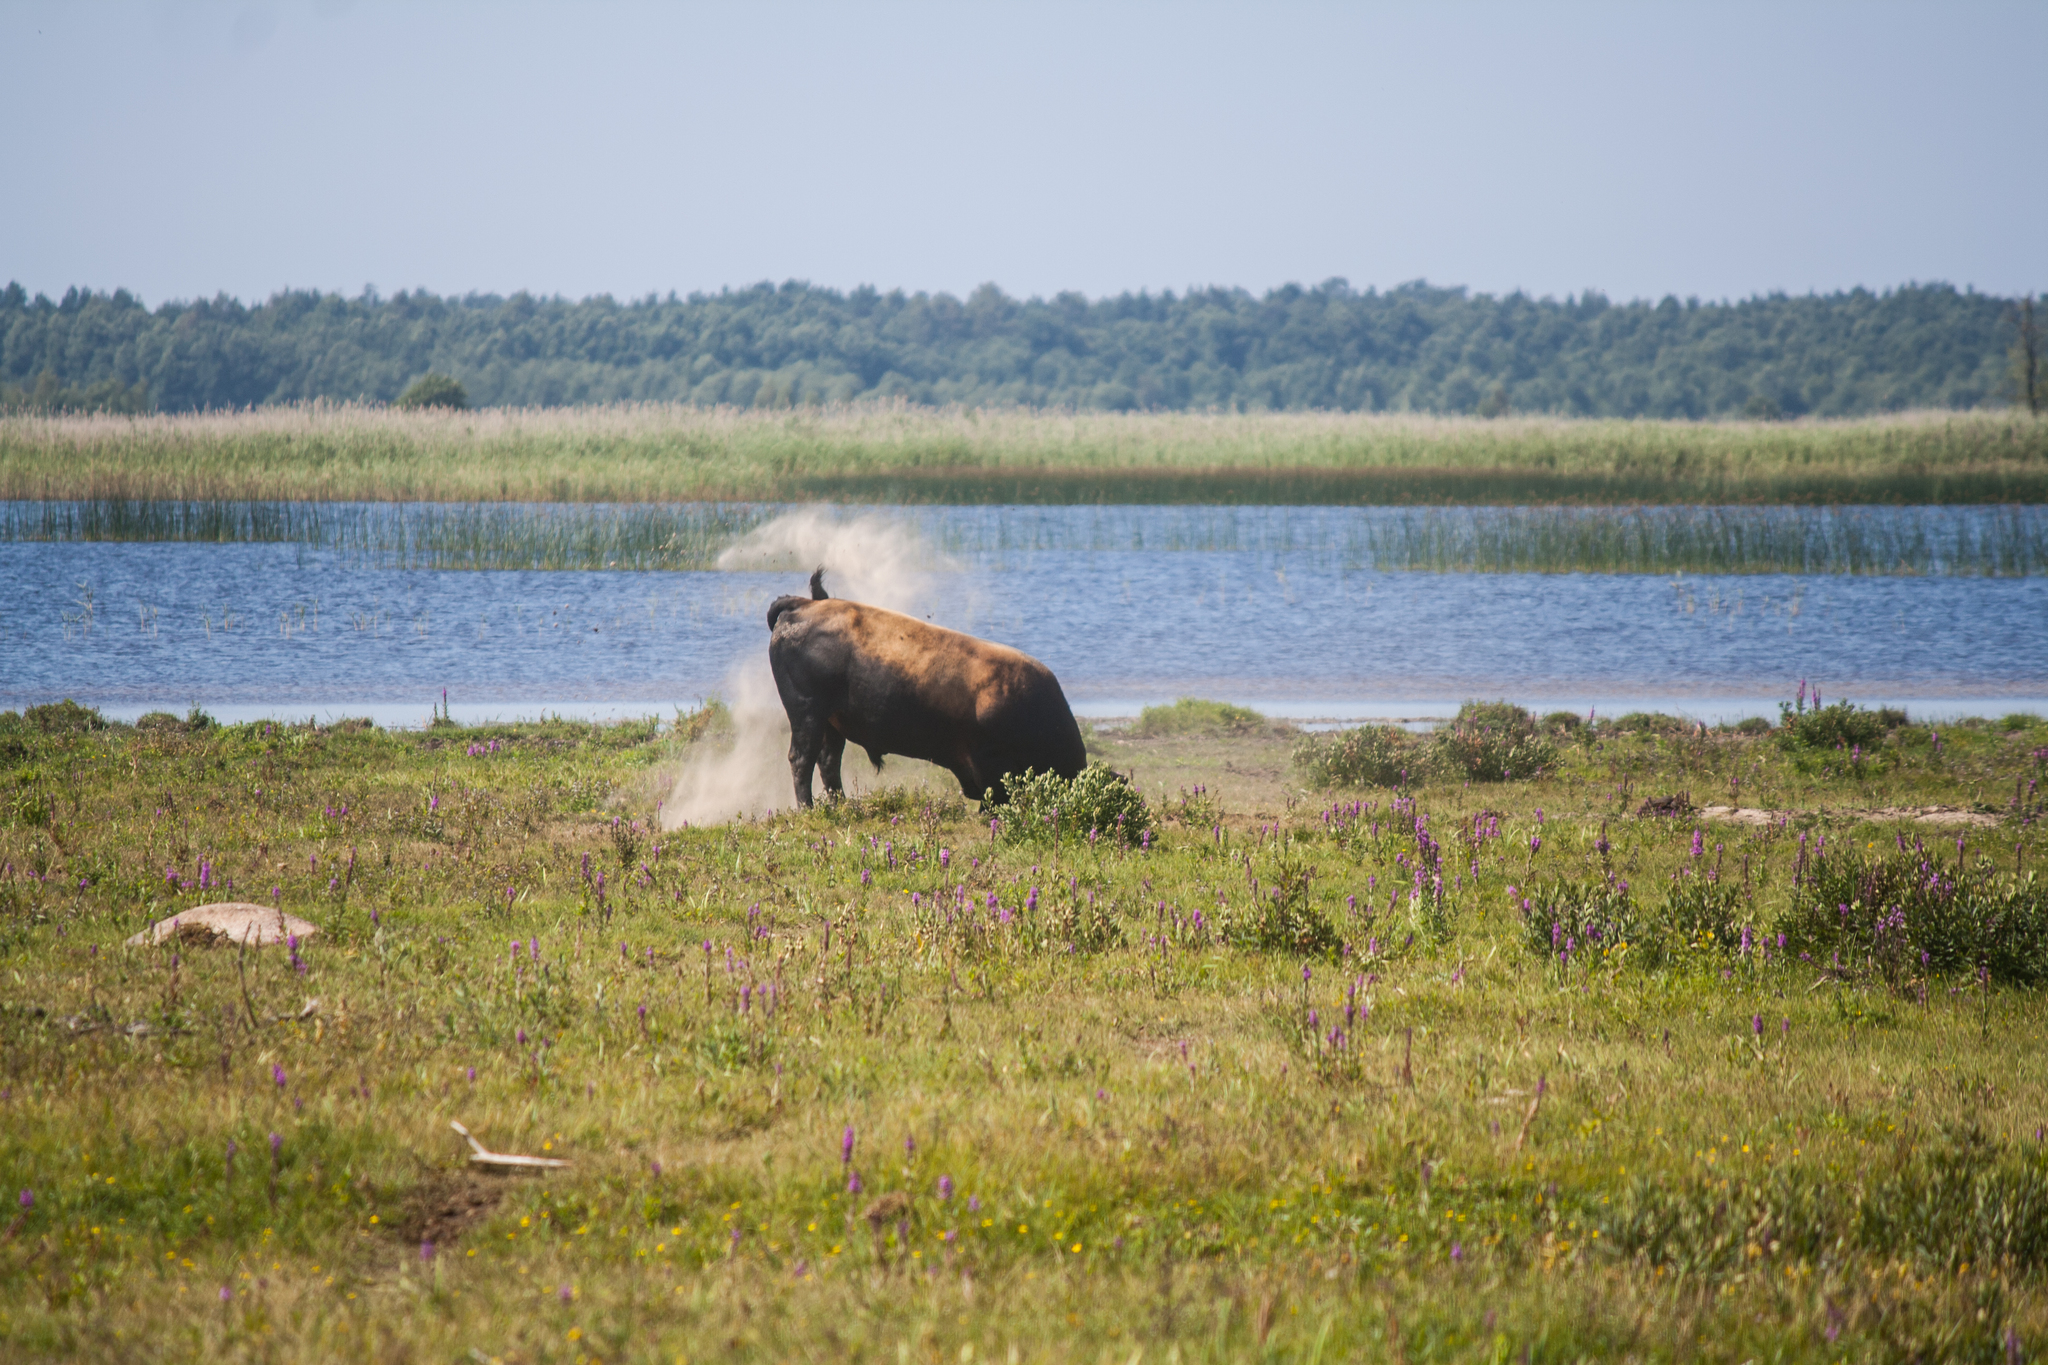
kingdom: Animalia
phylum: Chordata
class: Mammalia
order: Artiodactyla
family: Bovidae
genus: Bos
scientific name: Bos taurus
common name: Domesticated cattle
